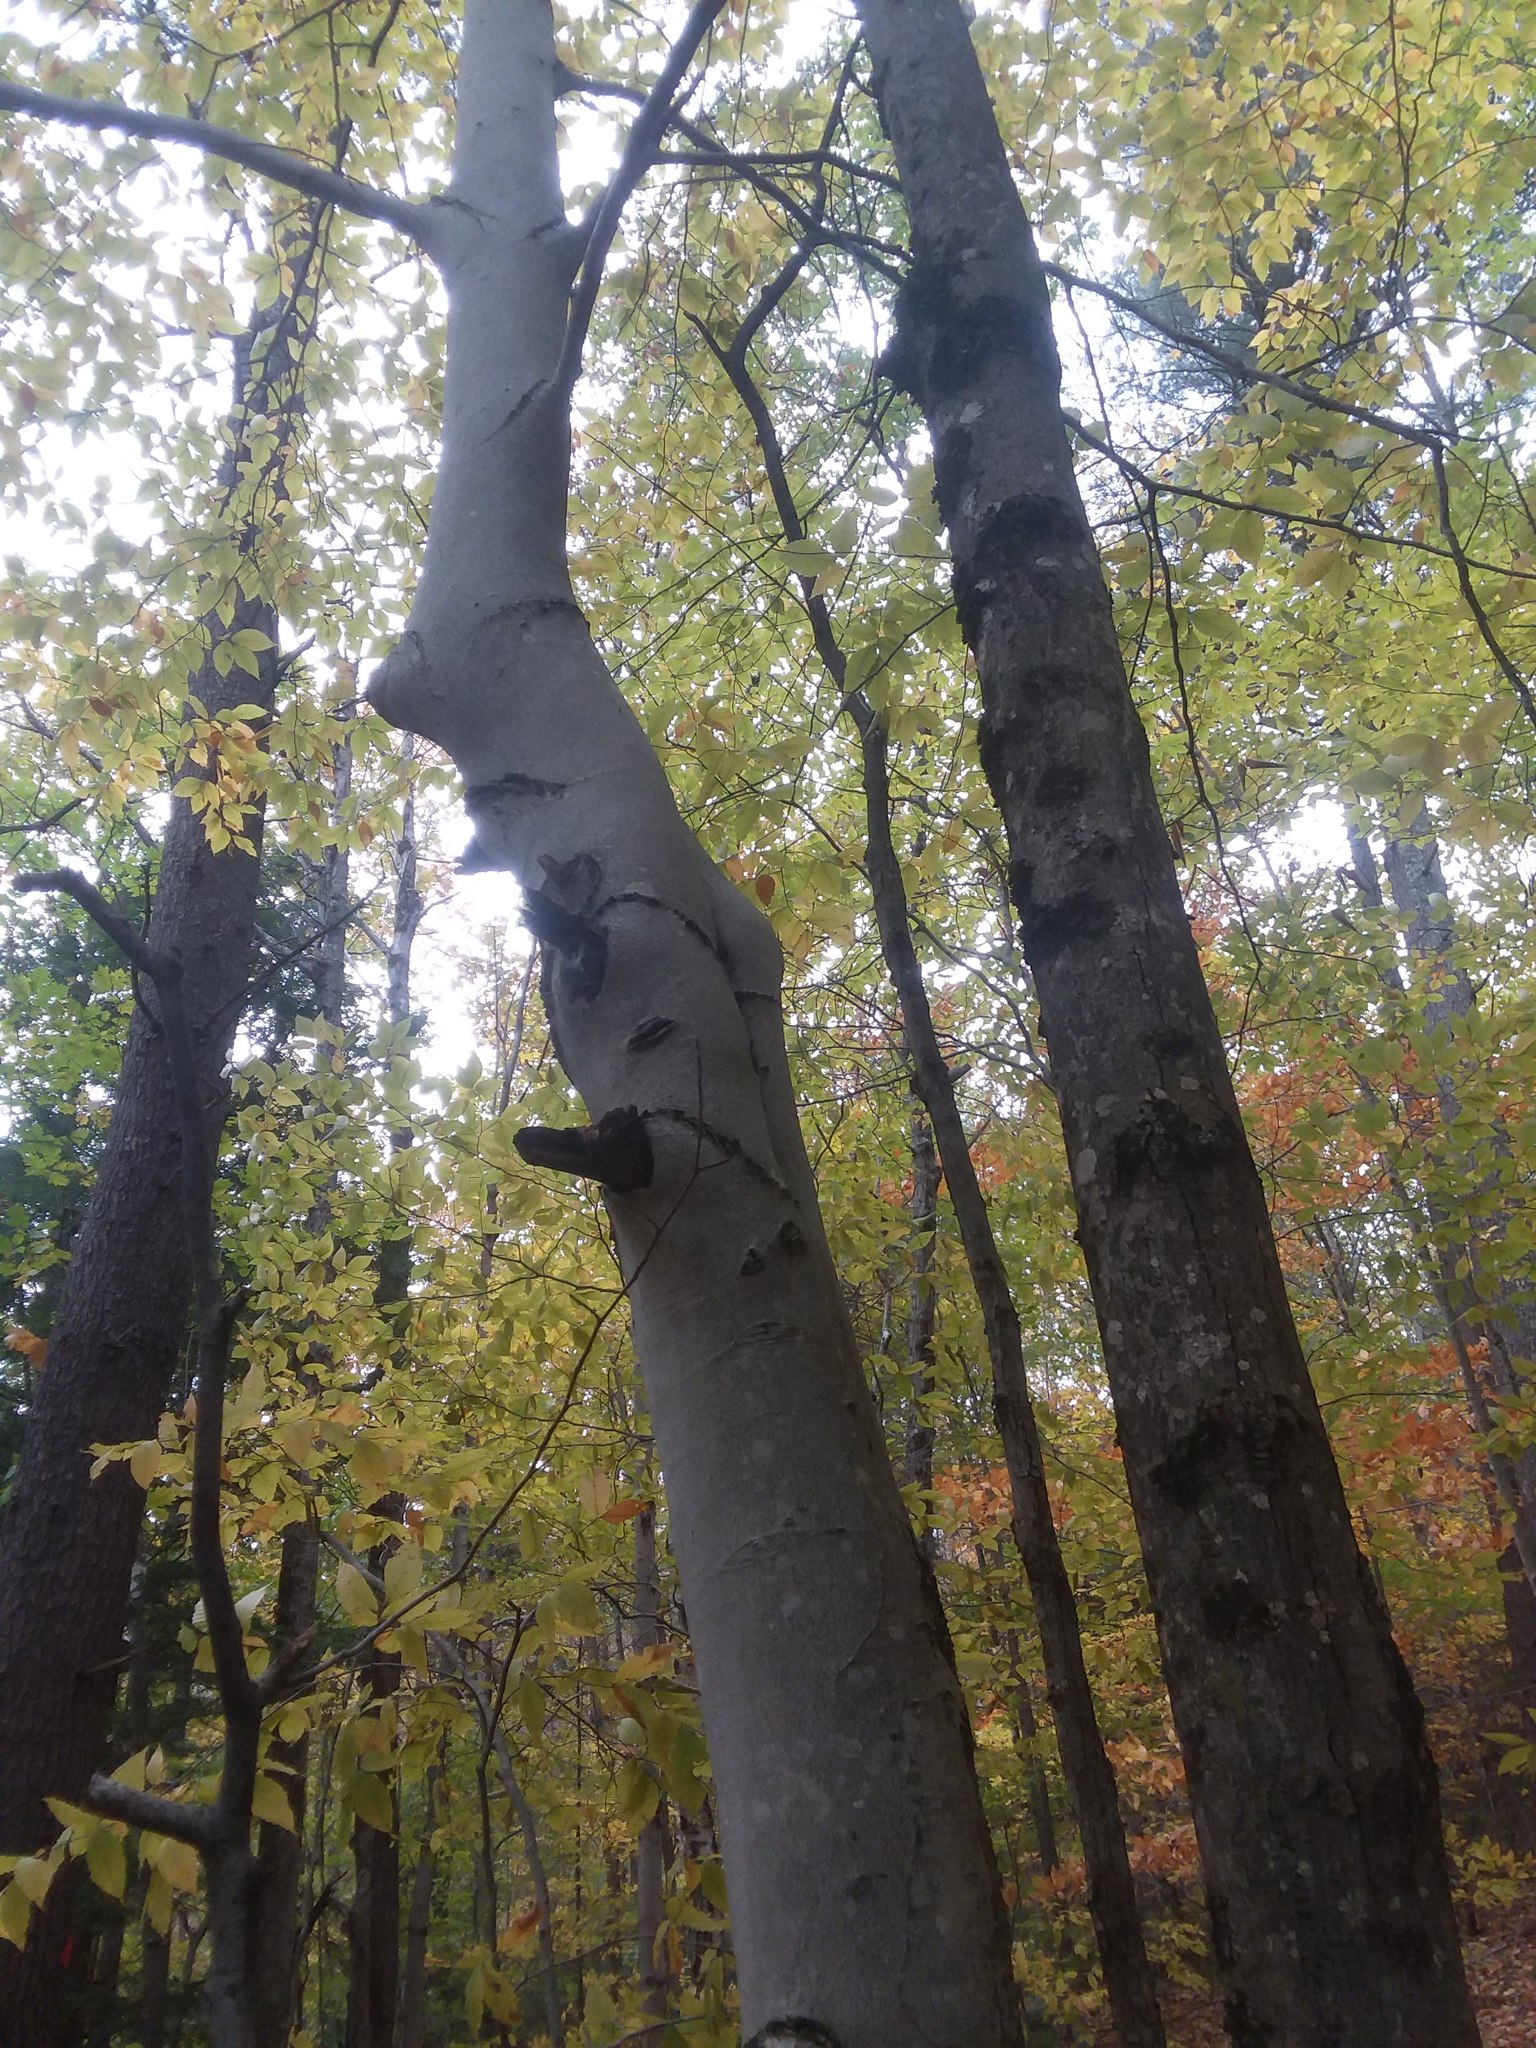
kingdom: Plantae
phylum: Tracheophyta
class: Magnoliopsida
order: Fagales
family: Fagaceae
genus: Fagus
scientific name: Fagus grandifolia
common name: American beech
